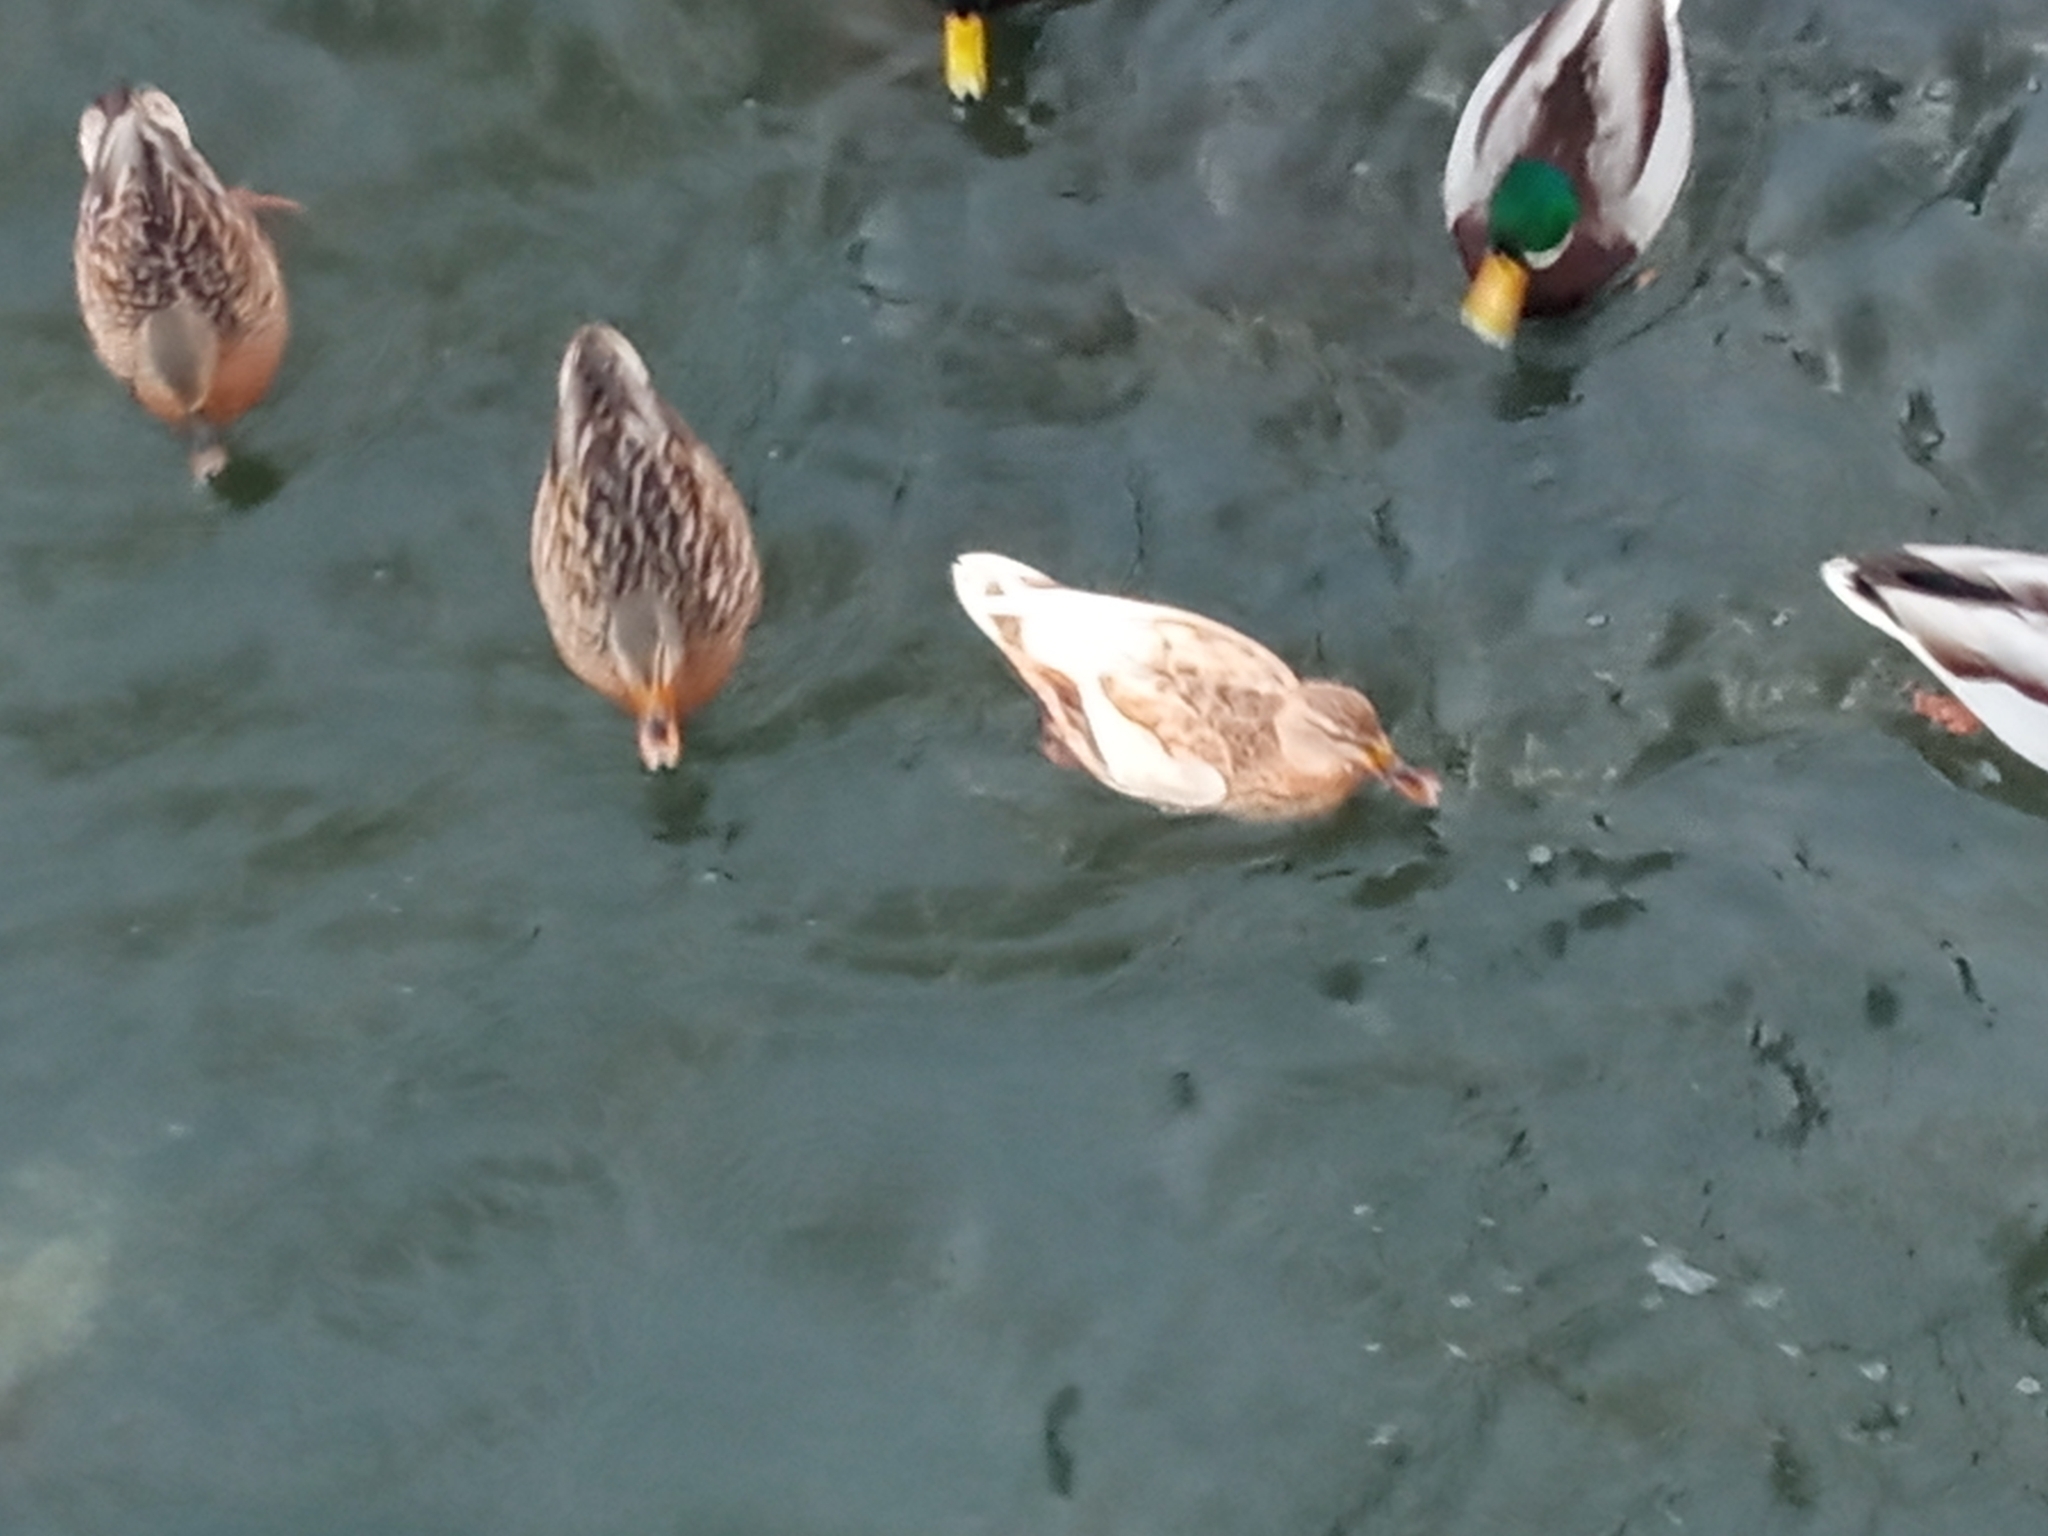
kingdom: Animalia
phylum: Chordata
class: Aves
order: Anseriformes
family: Anatidae
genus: Anas
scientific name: Anas platyrhynchos
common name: Mallard
